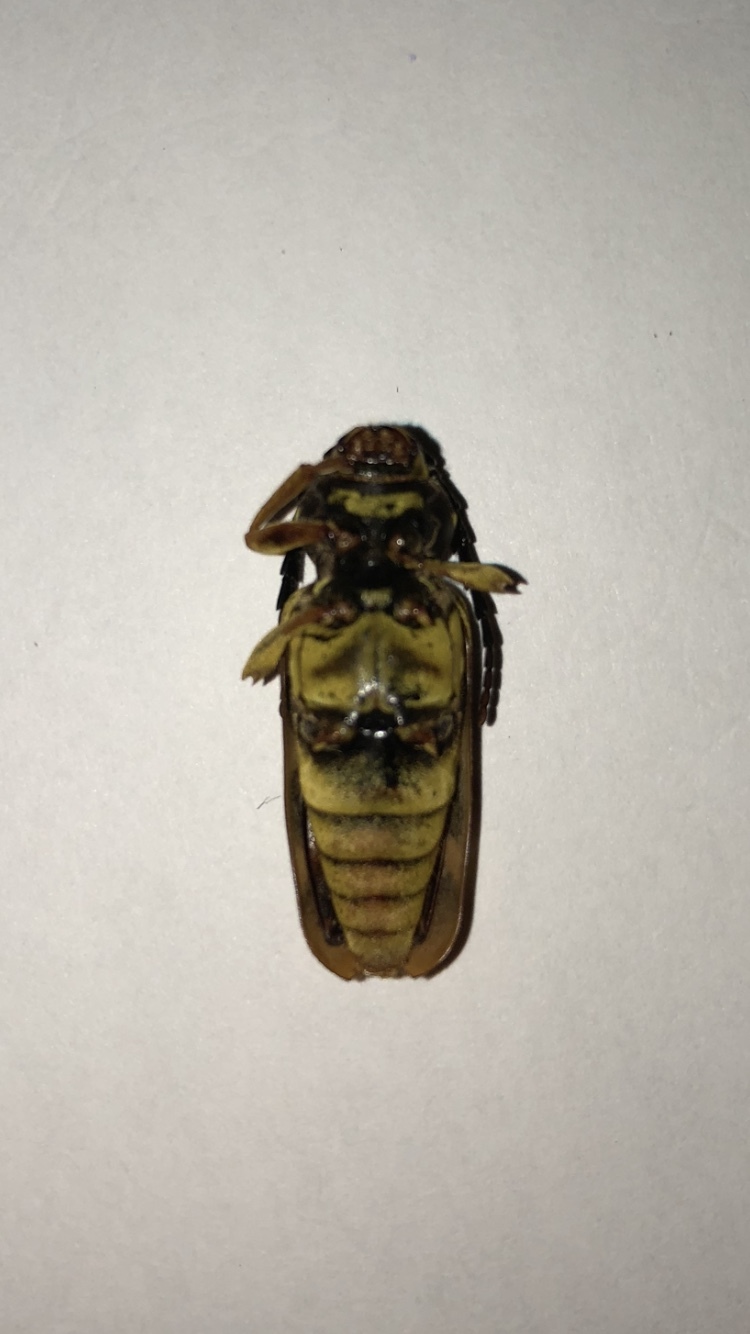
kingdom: Animalia
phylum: Arthropoda
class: Insecta
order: Coleoptera
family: Cerambycidae
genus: Glycobius
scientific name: Glycobius speciosus
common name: Sugar maple borer
